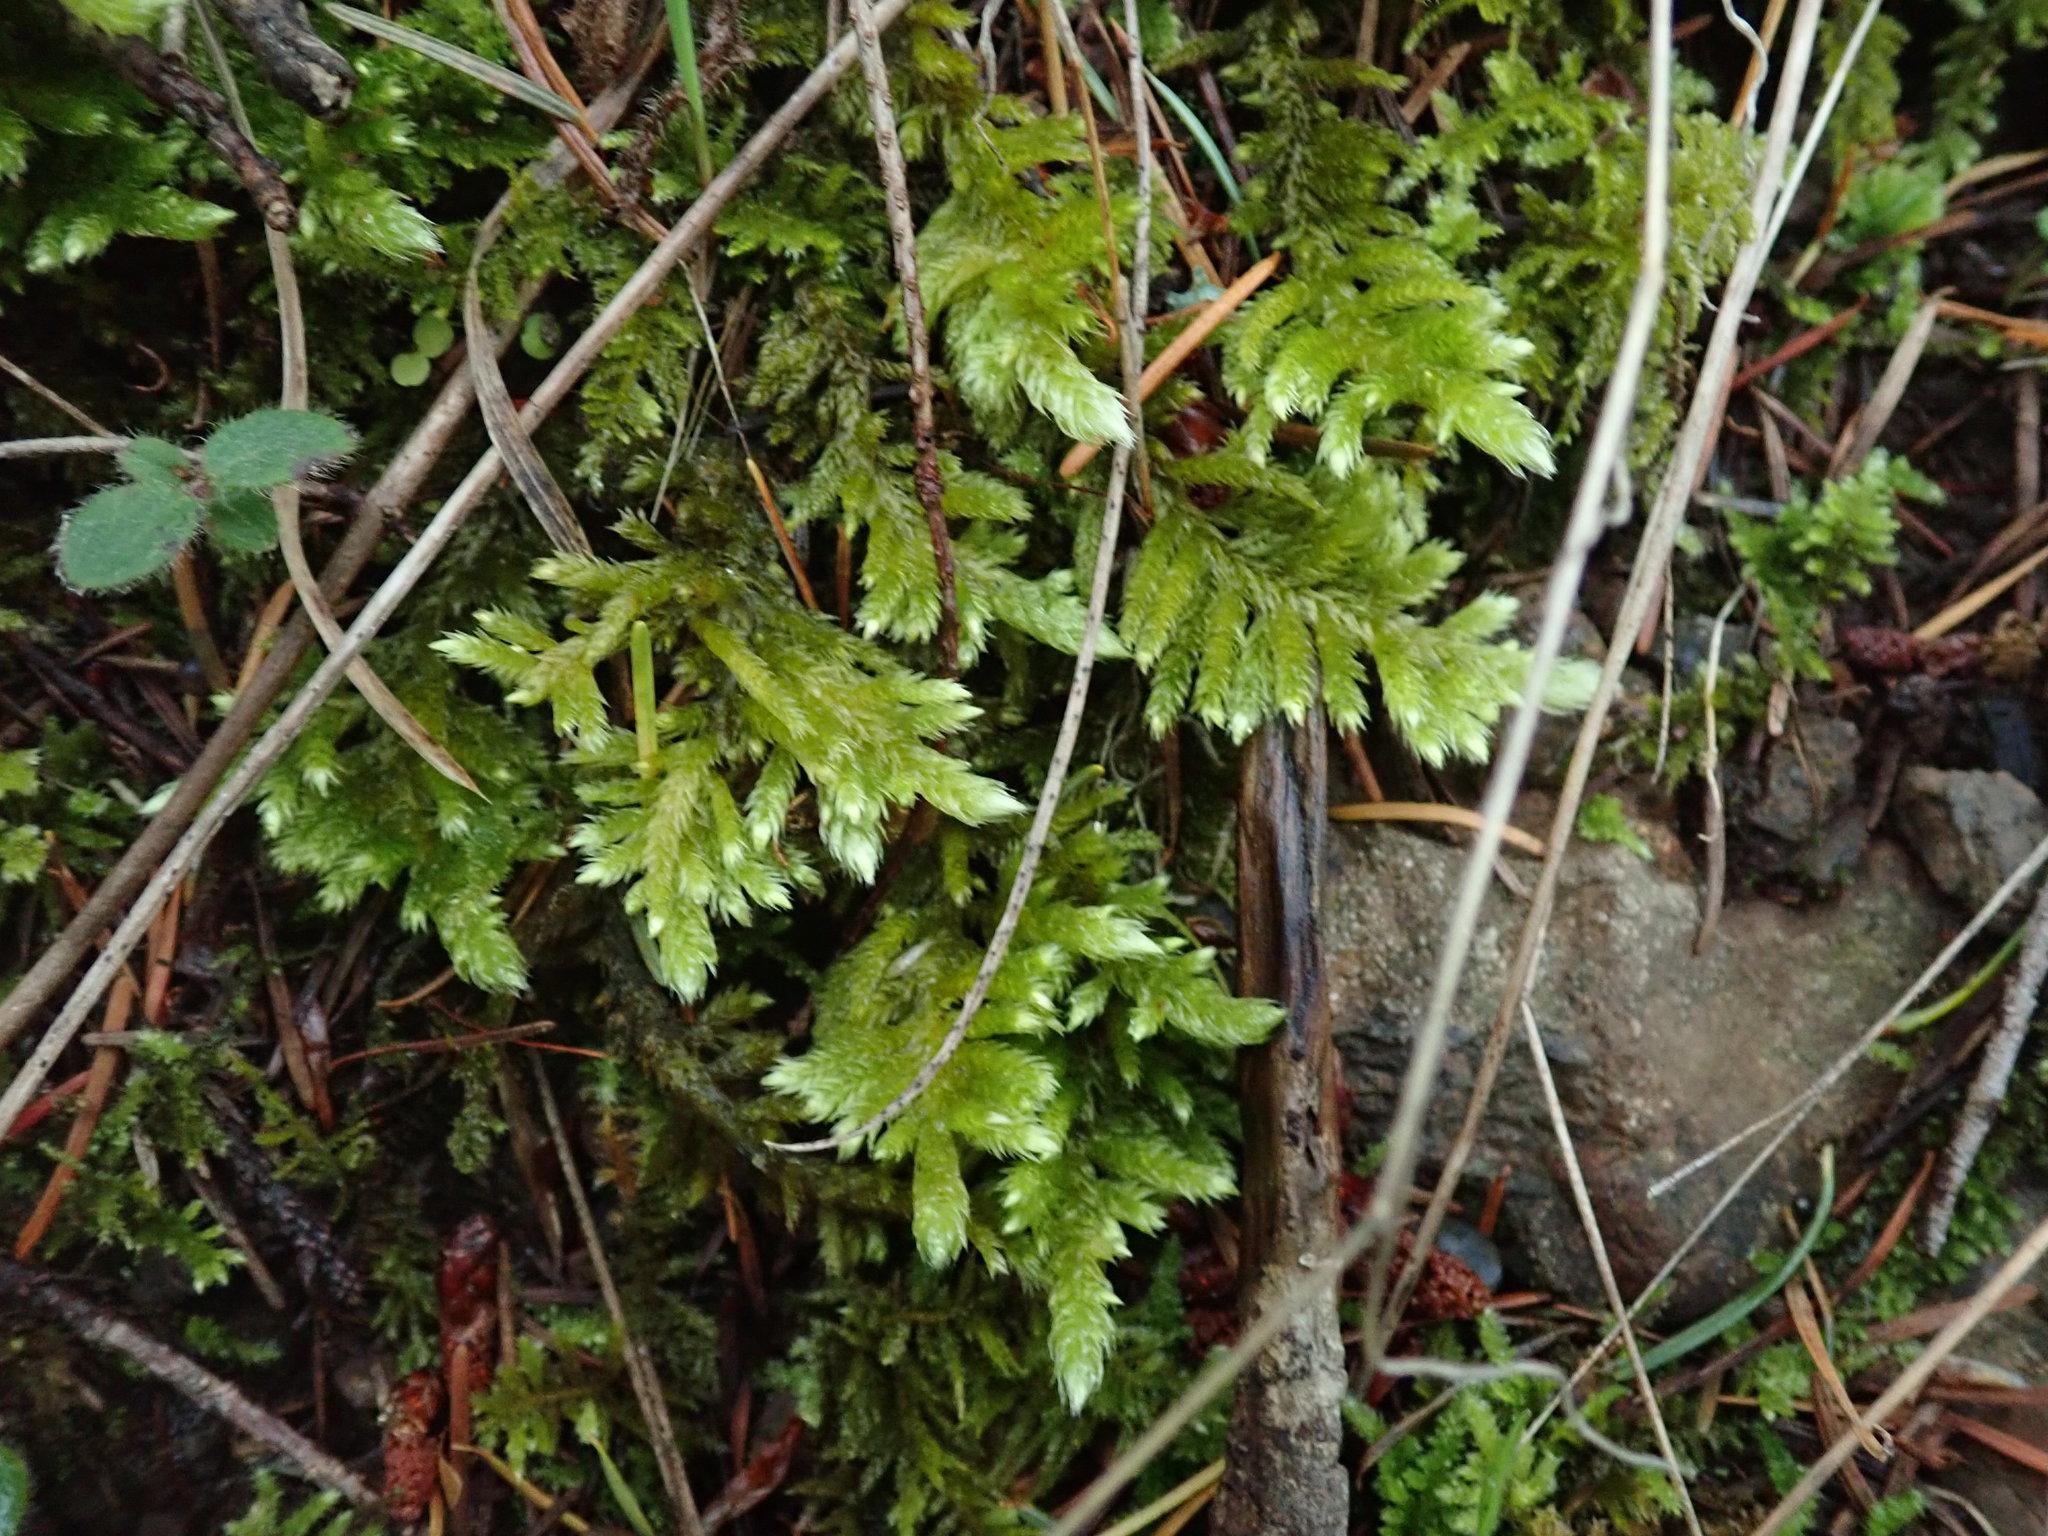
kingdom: Plantae
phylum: Bryophyta
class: Bryopsida
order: Hypnales
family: Brachytheciaceae
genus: Homalothecium
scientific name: Homalothecium megaptilum
